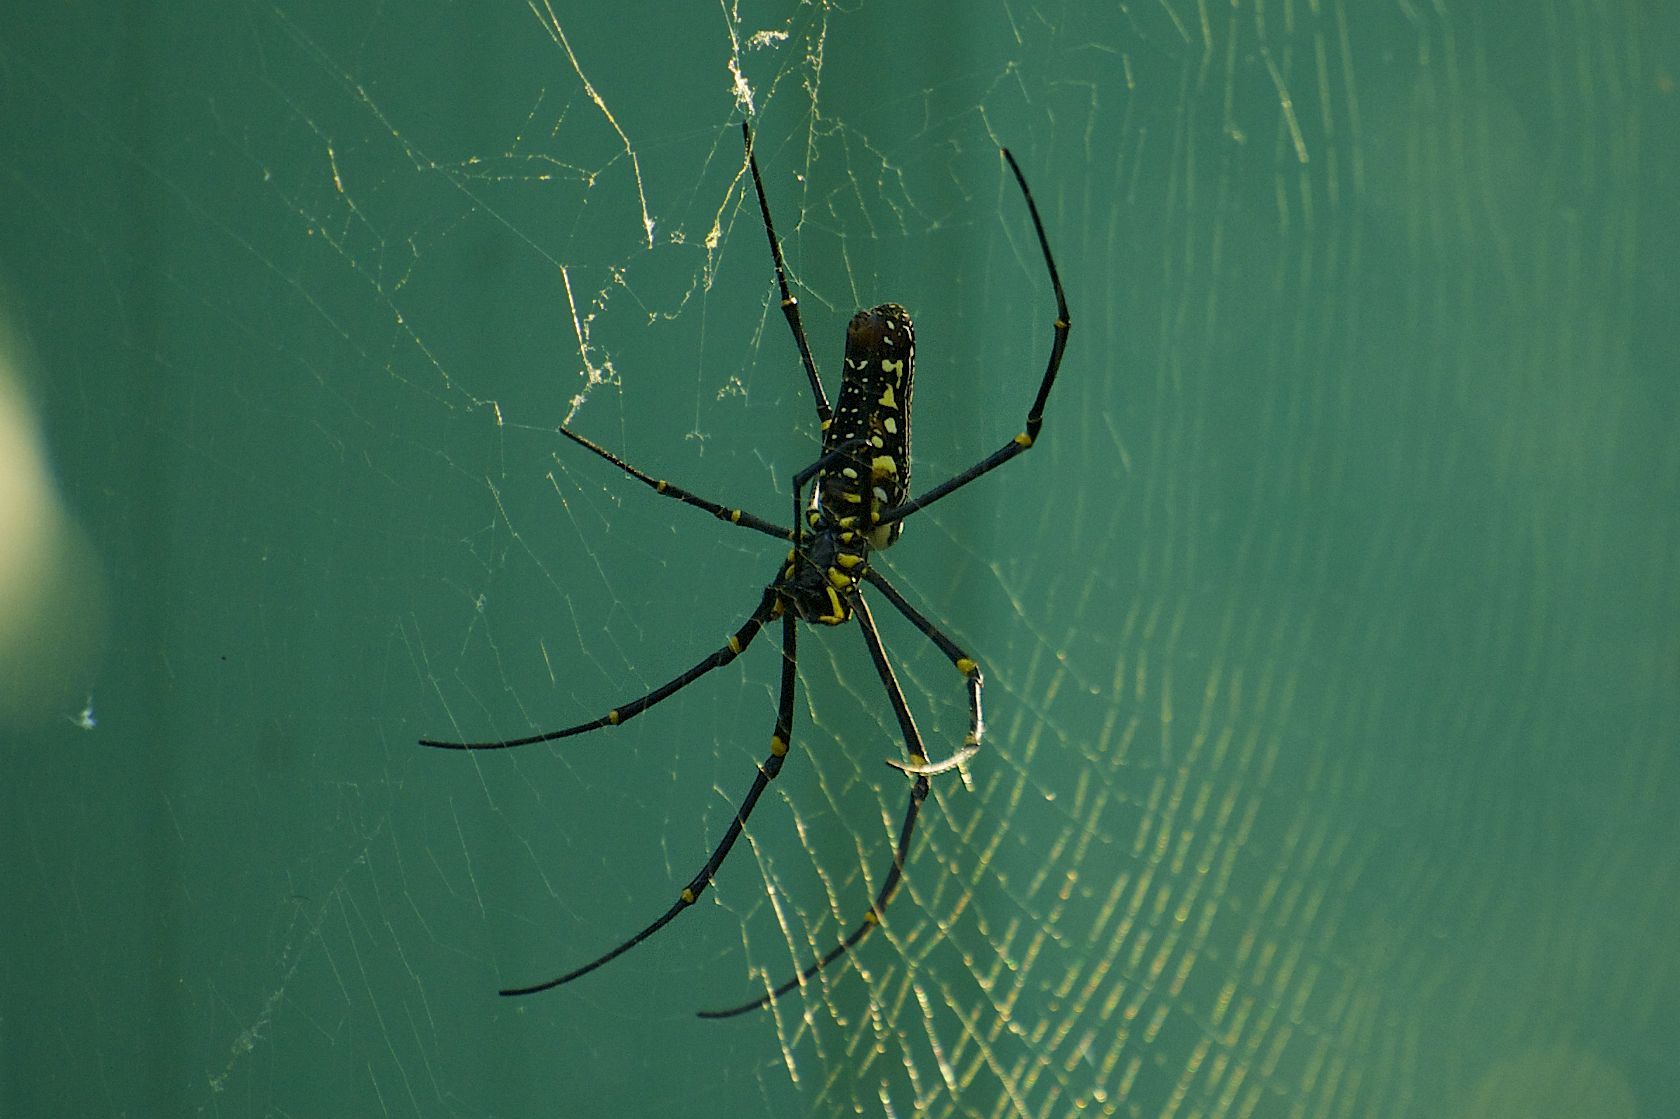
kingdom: Animalia
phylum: Arthropoda
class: Arachnida
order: Araneae
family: Araneidae
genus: Nephila
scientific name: Nephila pilipes
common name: Giant golden orb weaver
